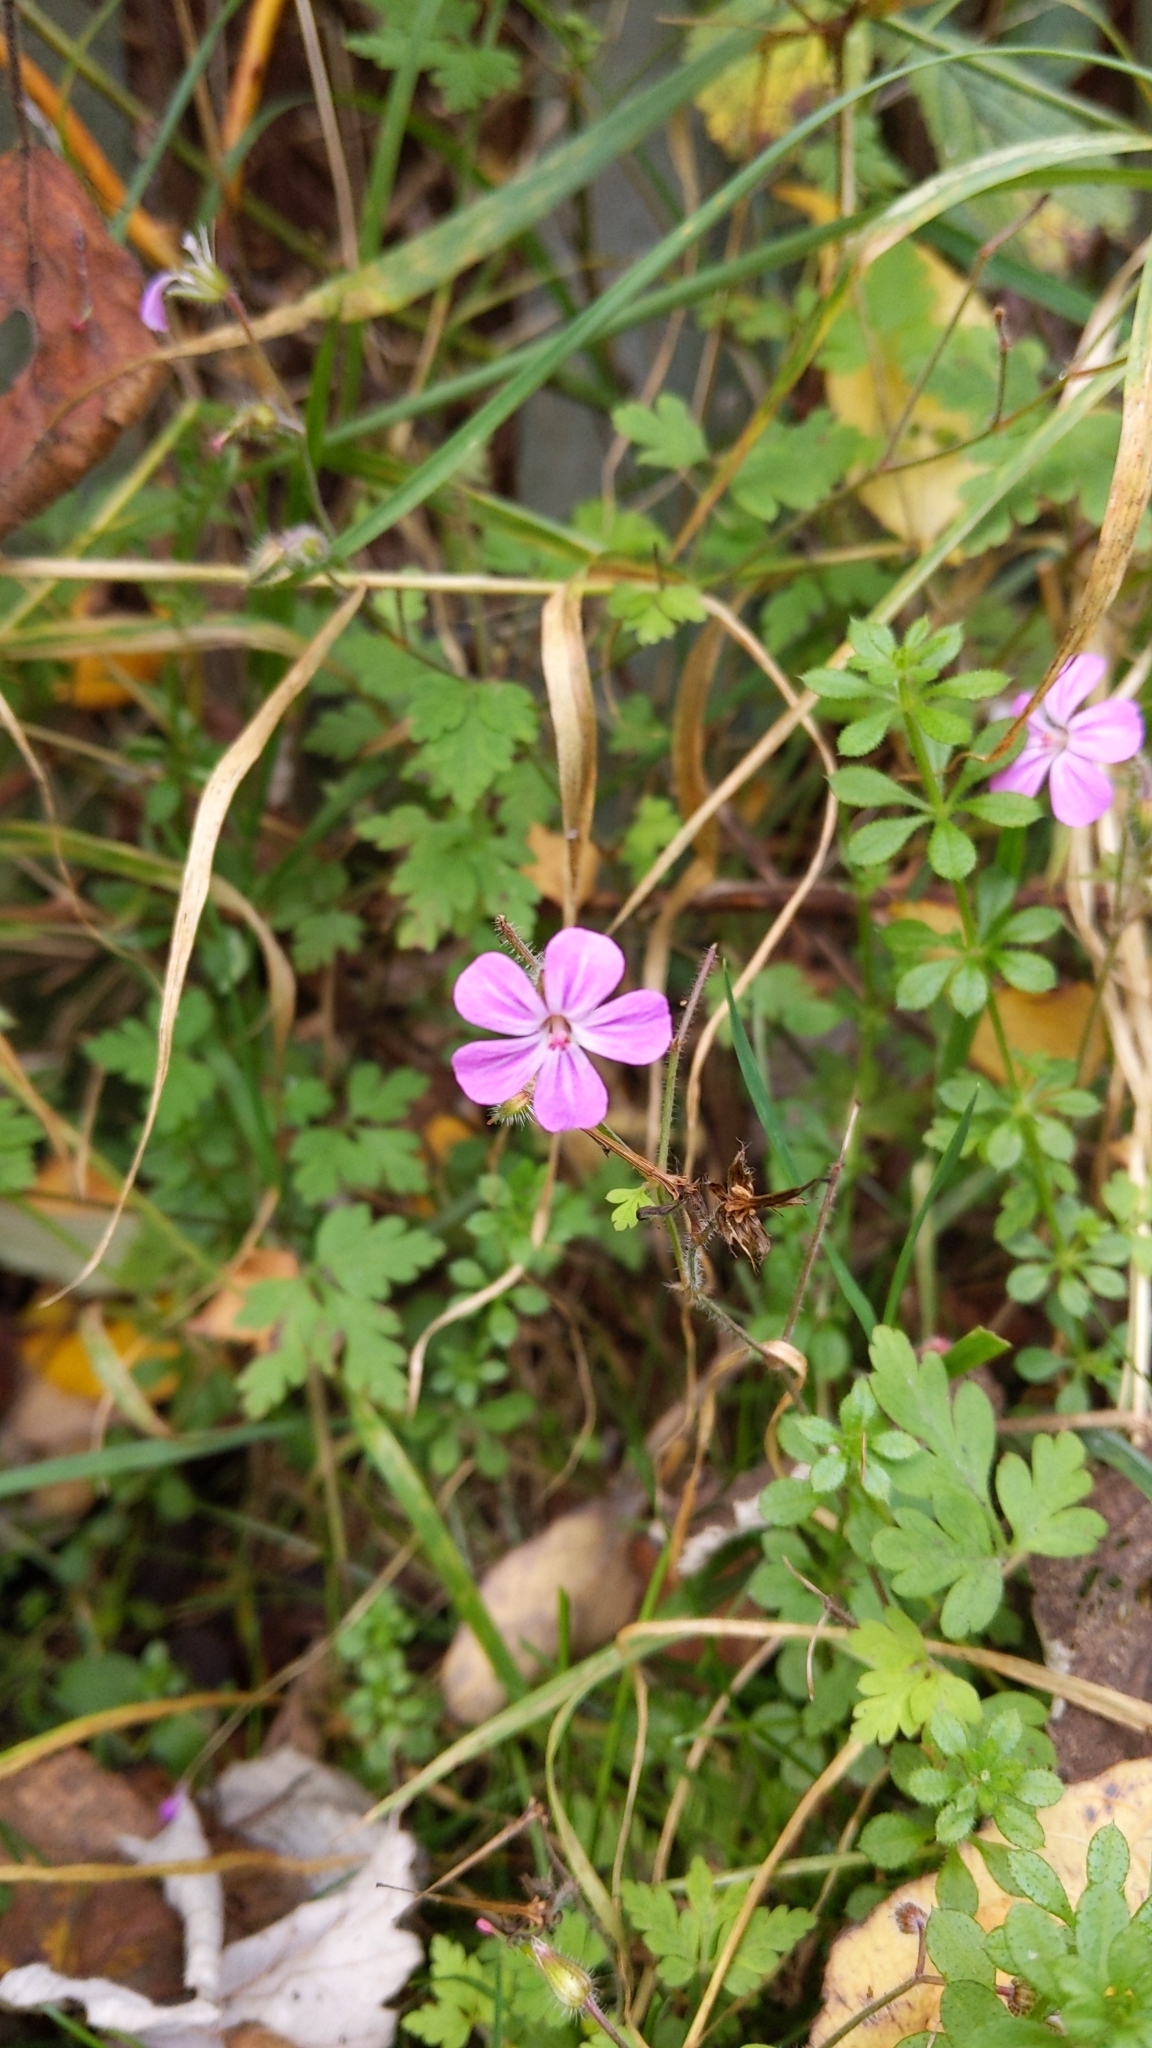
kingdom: Plantae
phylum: Tracheophyta
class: Magnoliopsida
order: Geraniales
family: Geraniaceae
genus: Geranium
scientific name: Geranium robertianum
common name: Herb-robert
